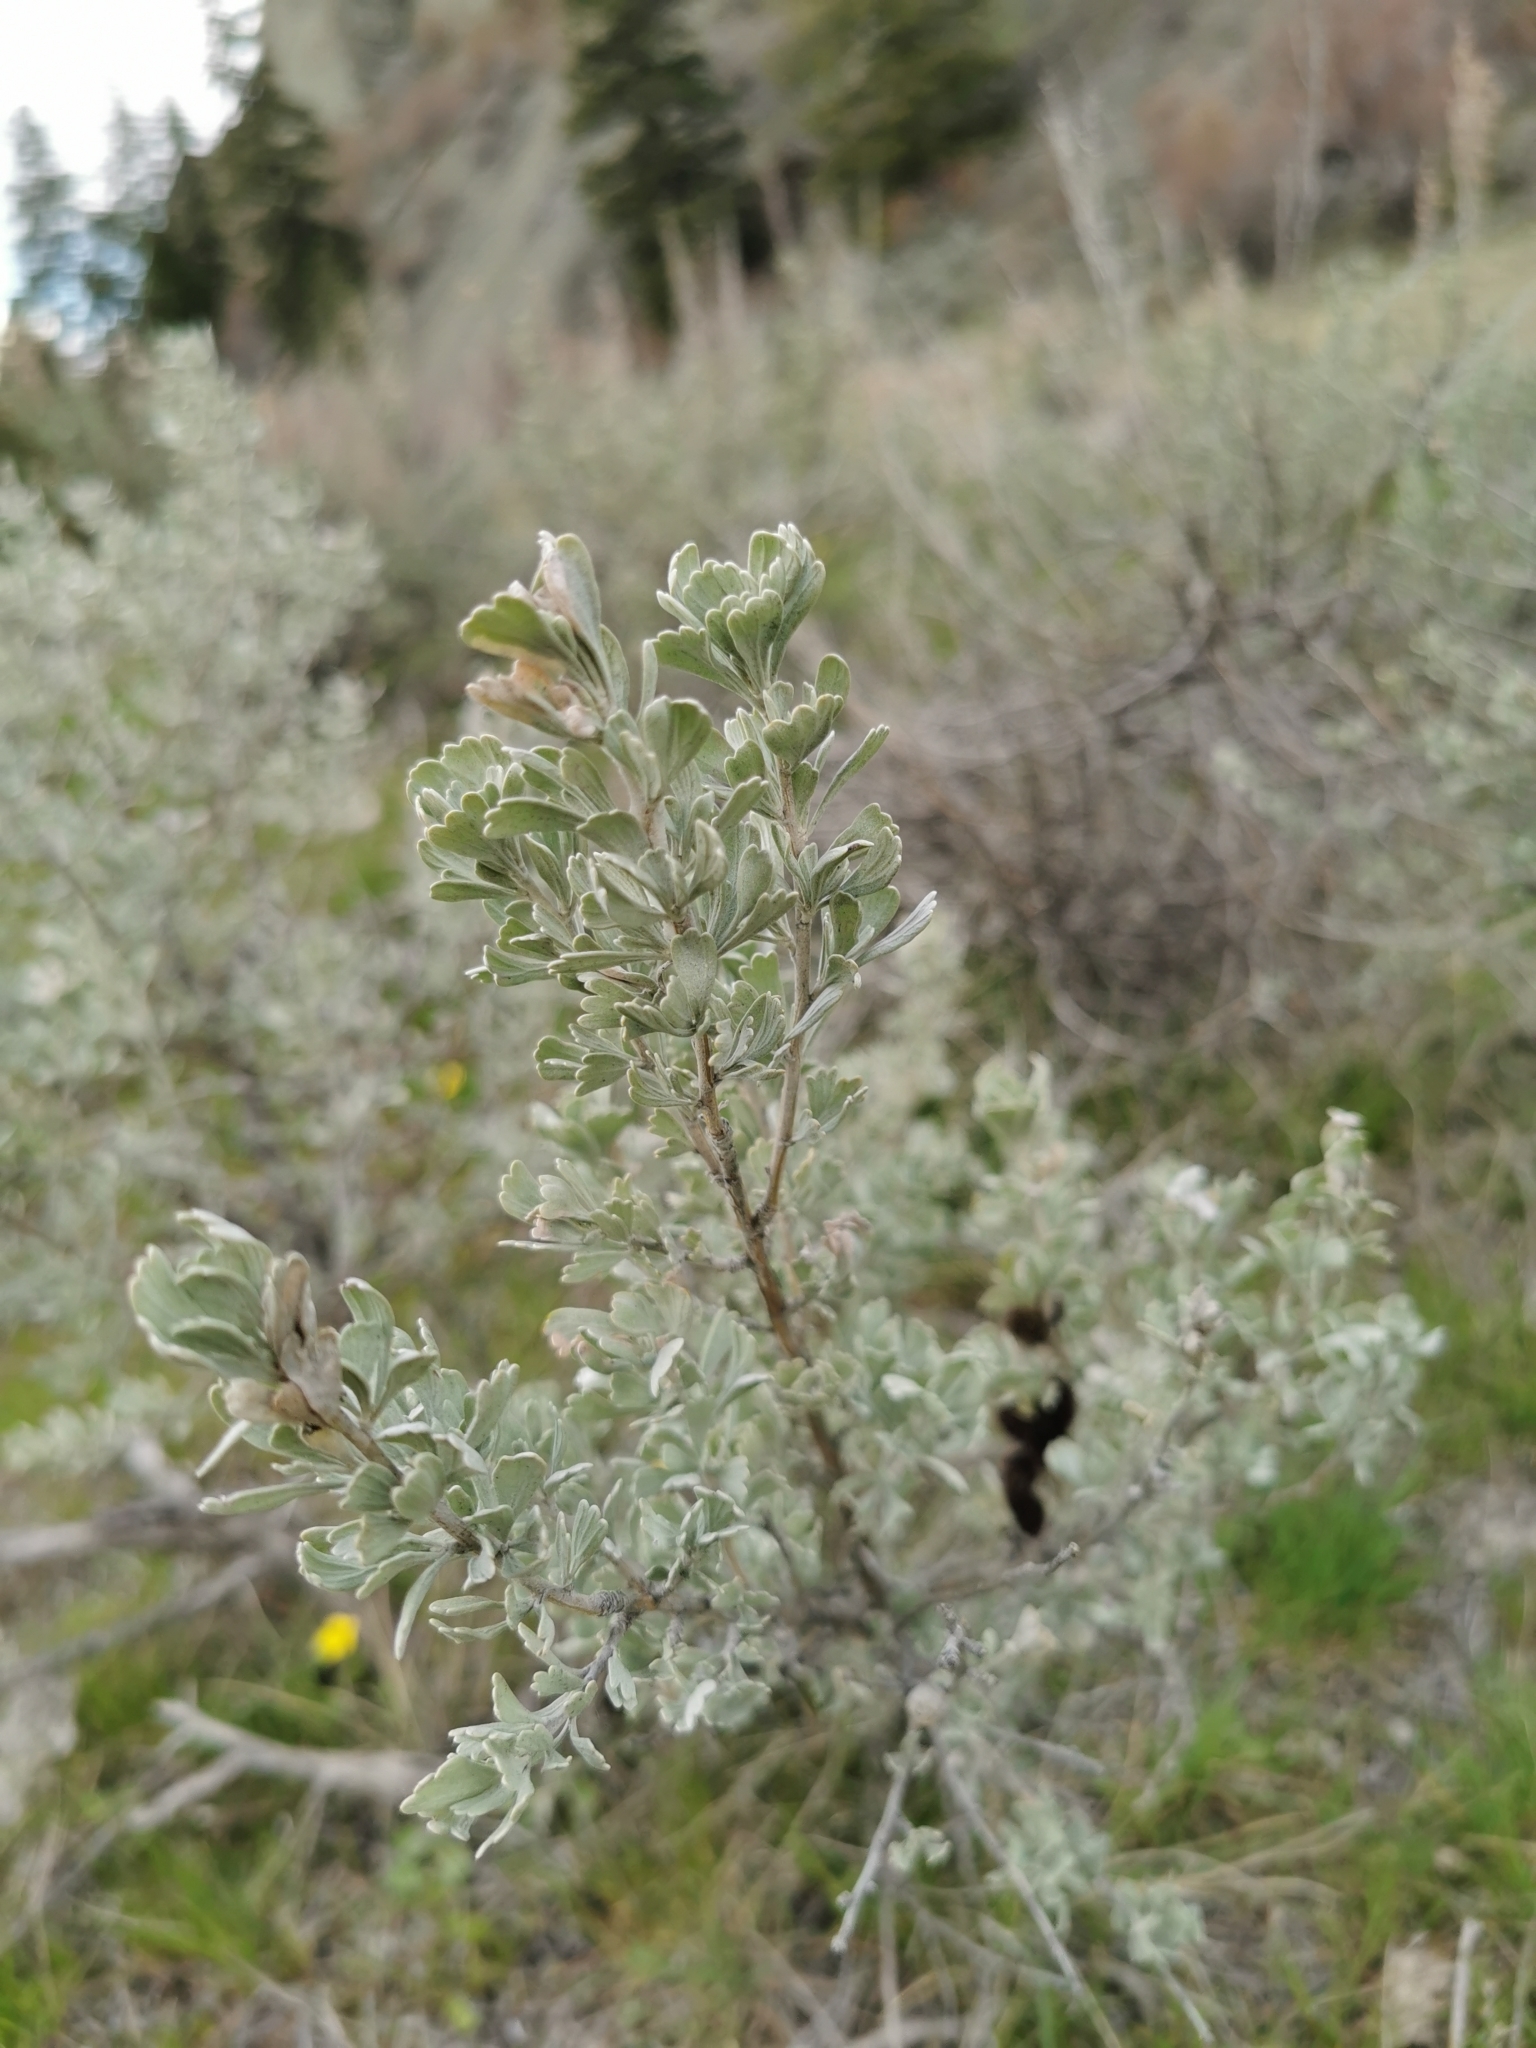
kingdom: Plantae
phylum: Tracheophyta
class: Magnoliopsida
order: Asterales
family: Asteraceae
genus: Artemisia
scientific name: Artemisia tridentata
